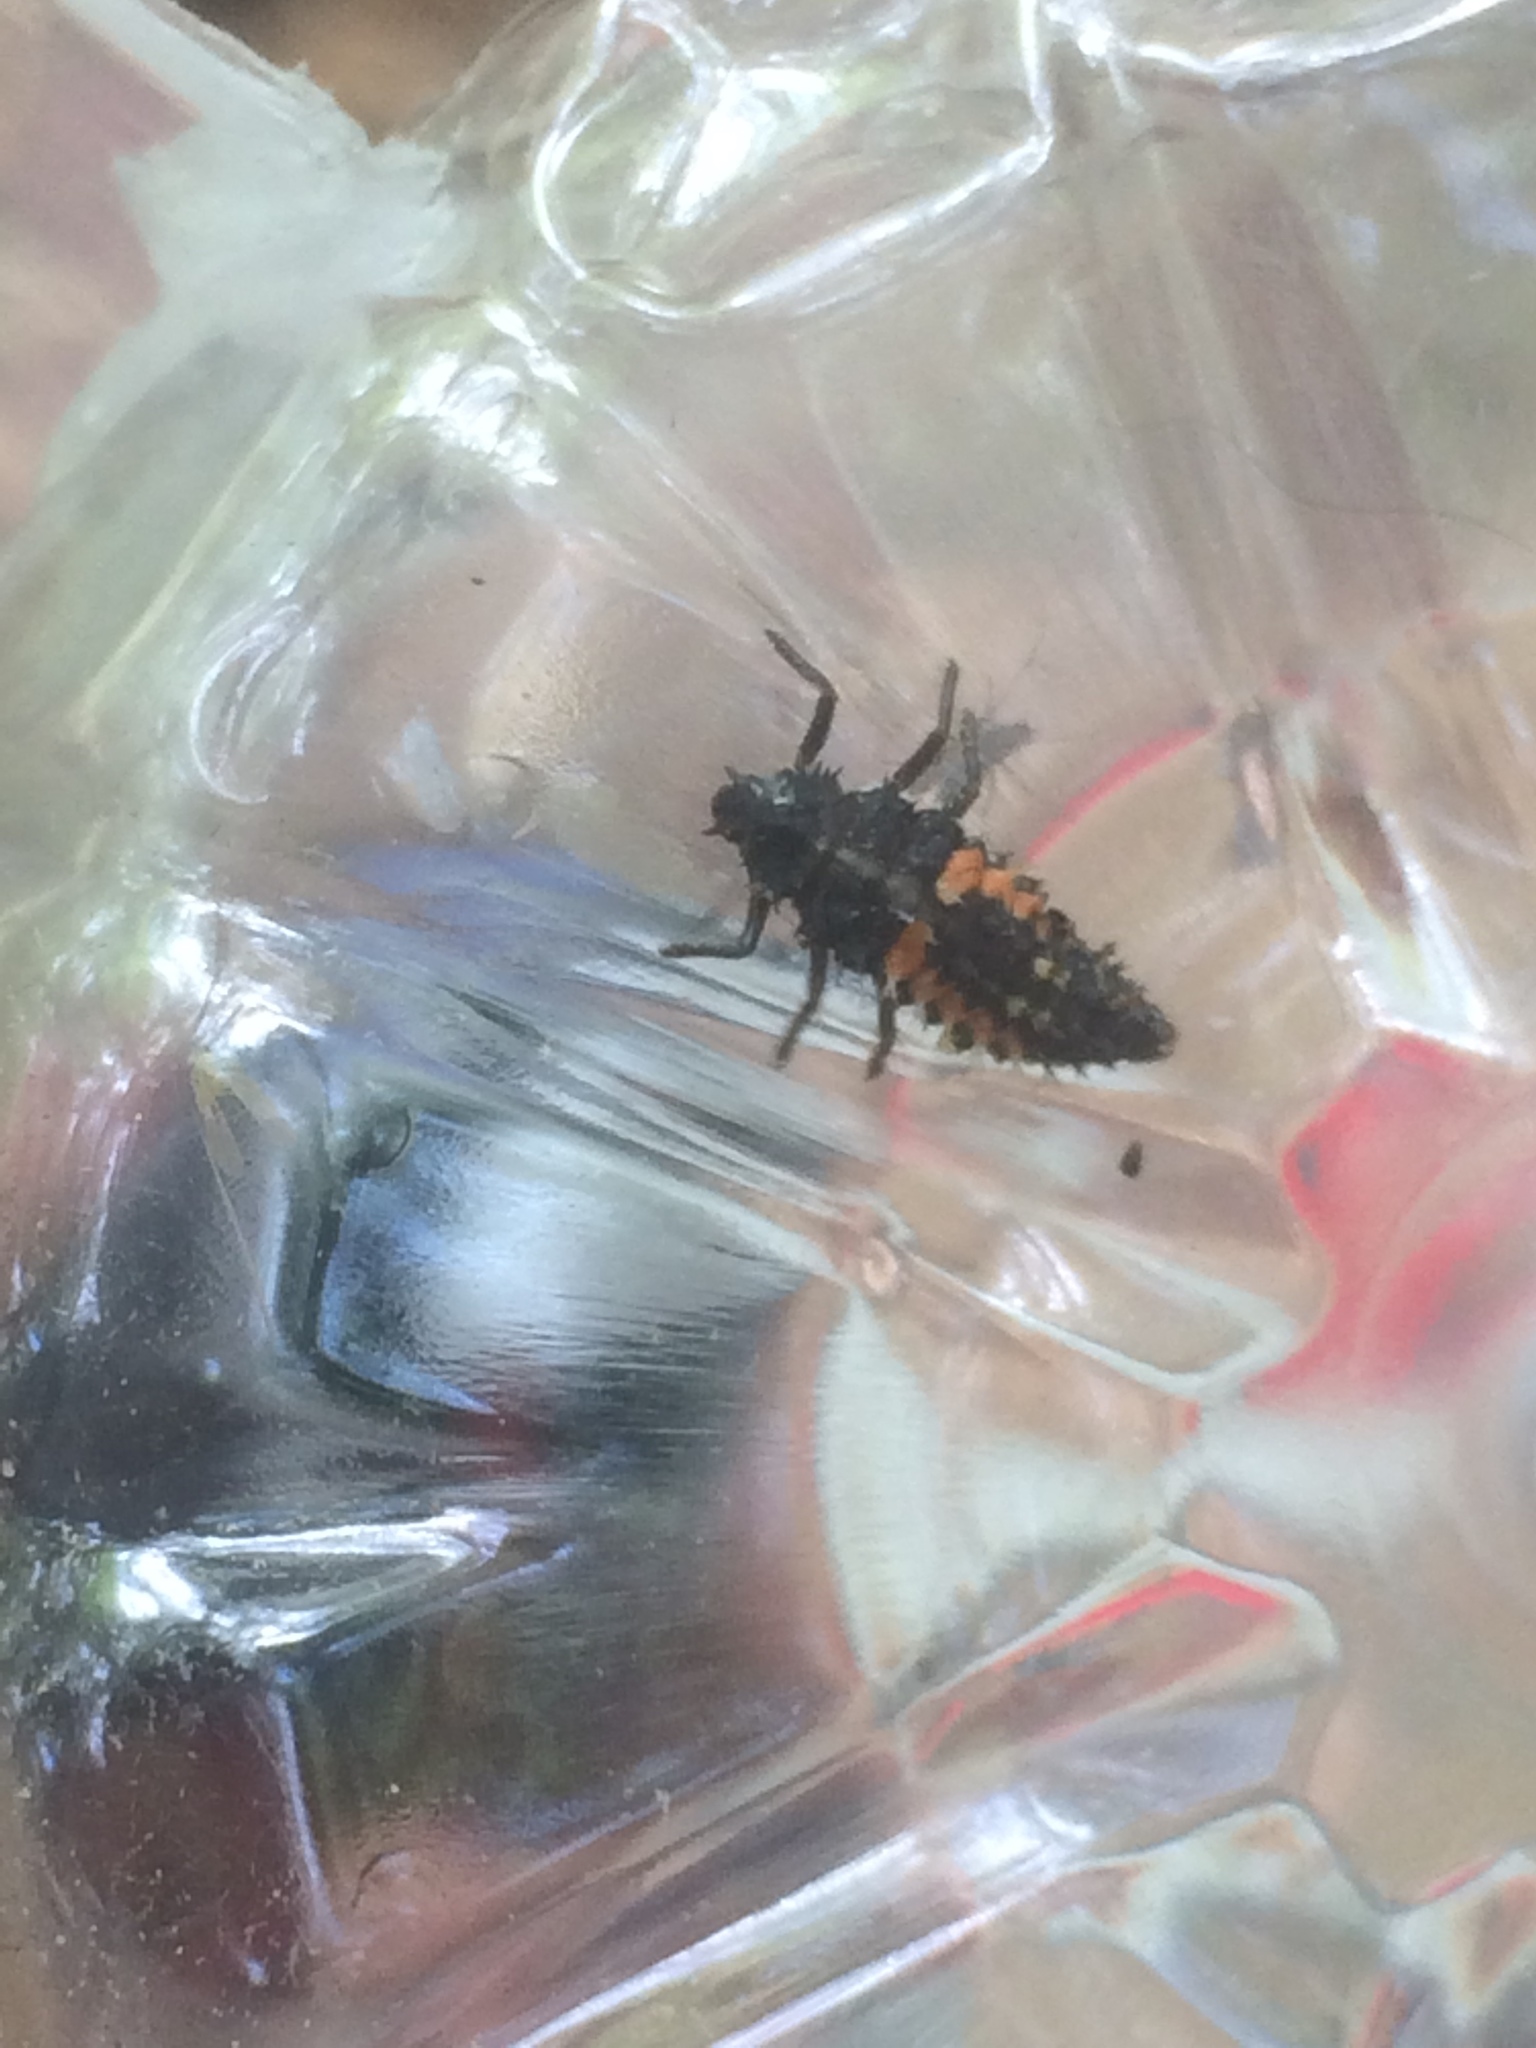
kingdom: Animalia
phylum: Arthropoda
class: Insecta
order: Coleoptera
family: Coccinellidae
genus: Harmonia
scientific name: Harmonia axyridis
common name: Harlequin ladybird
